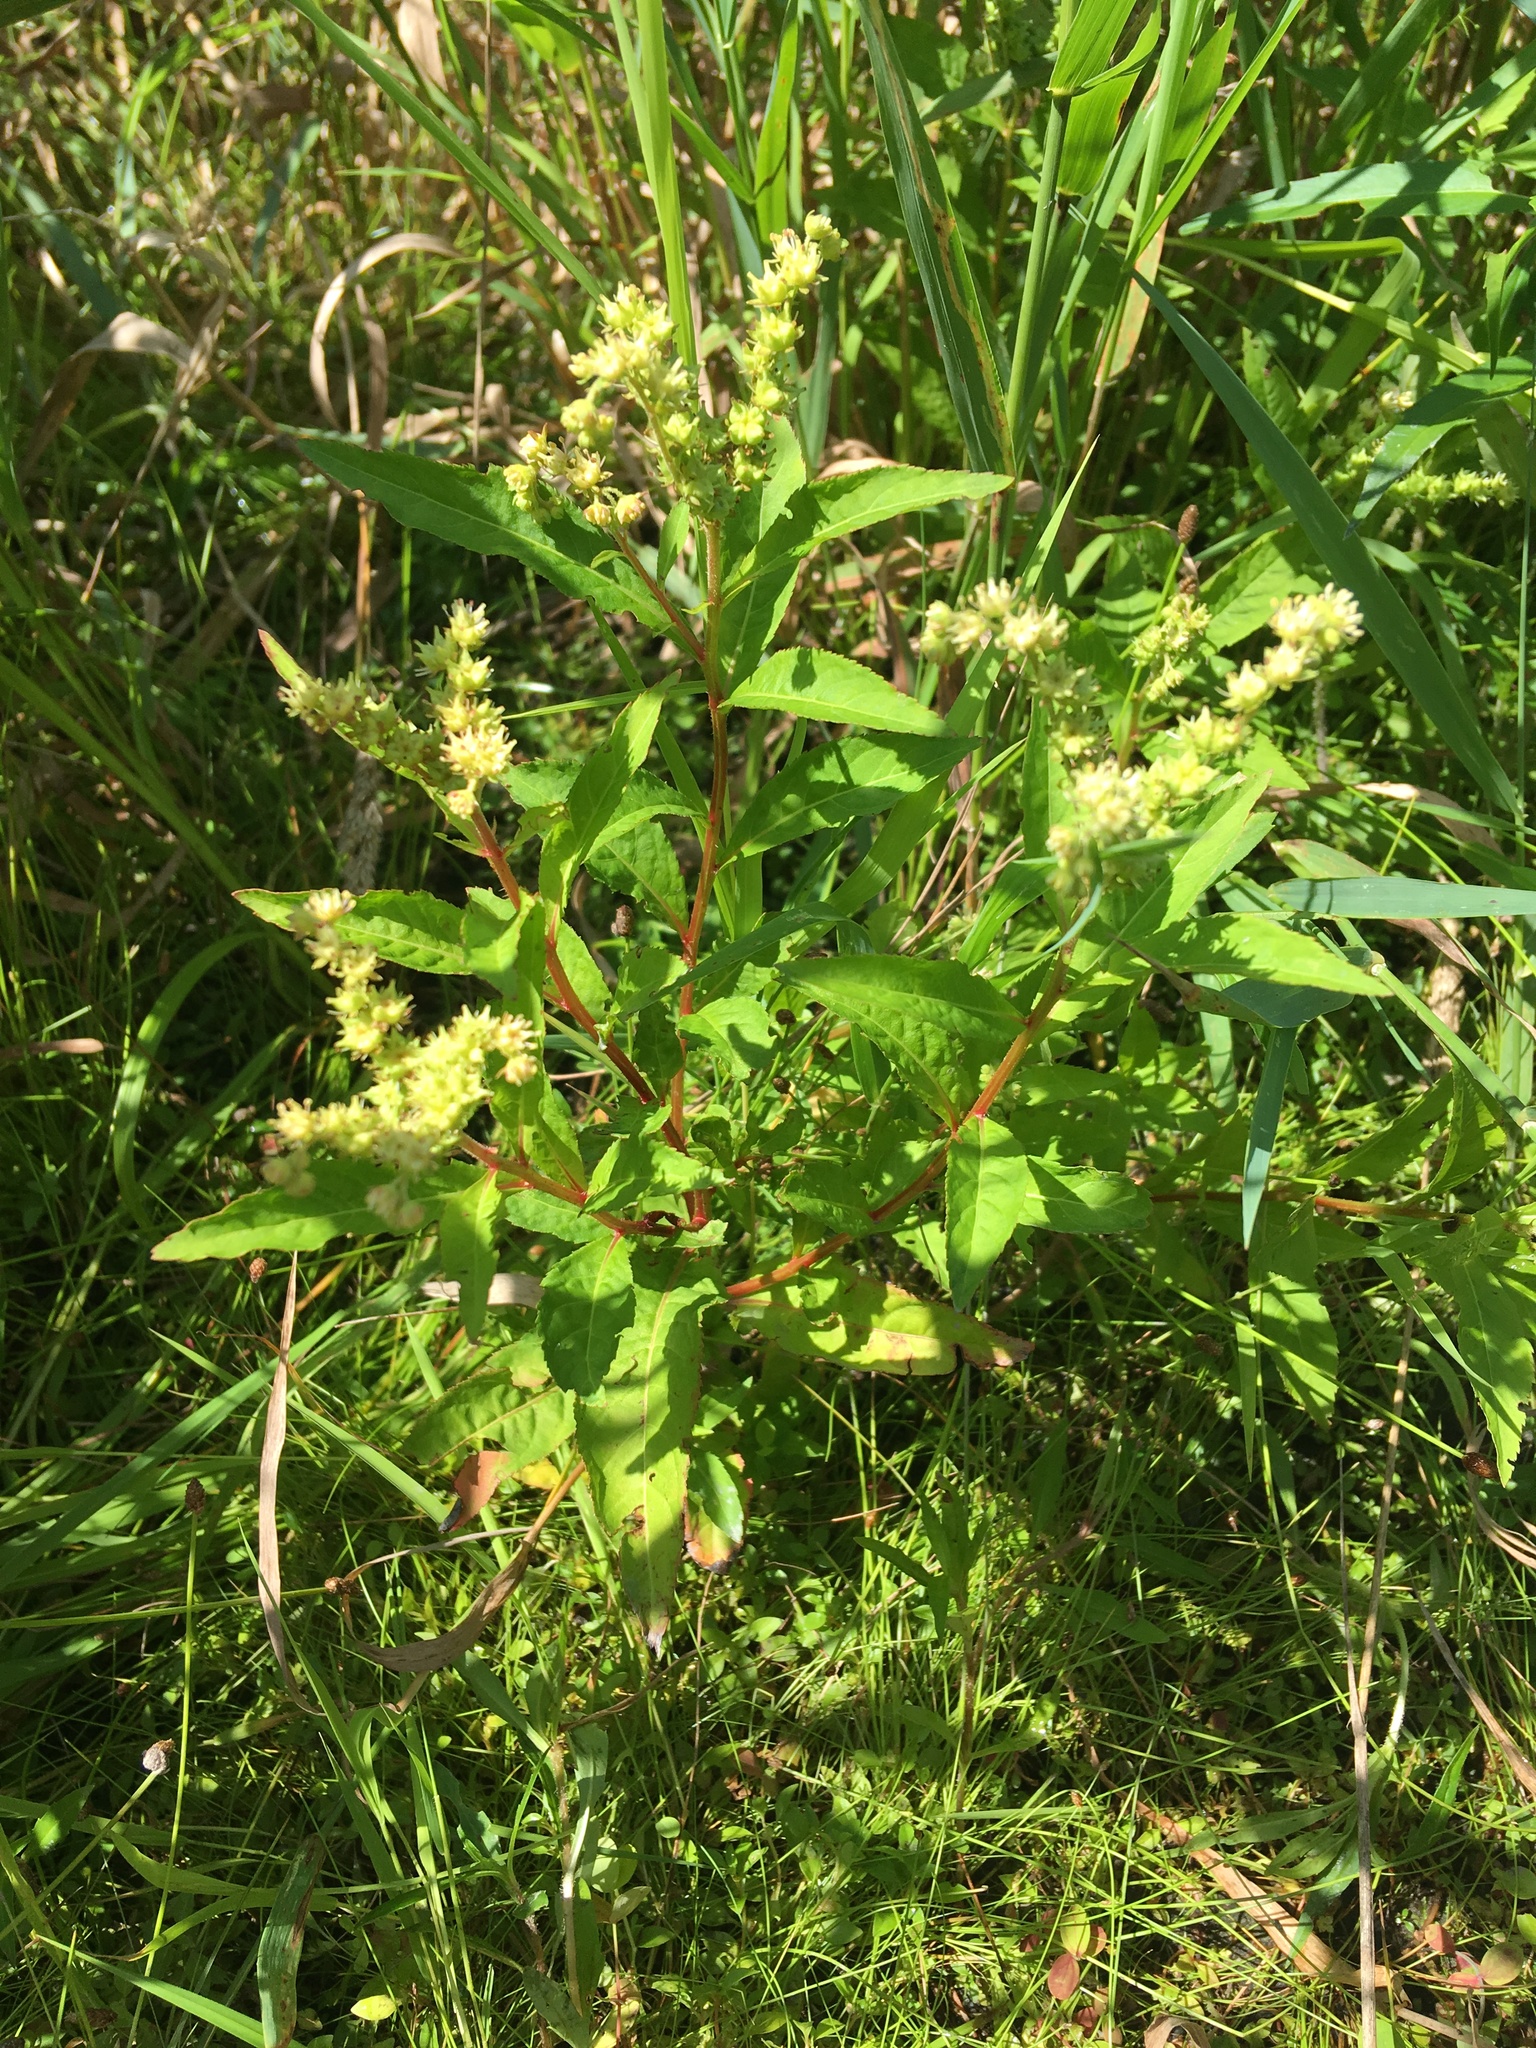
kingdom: Plantae
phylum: Tracheophyta
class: Magnoliopsida
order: Saxifragales
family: Penthoraceae
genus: Penthorum
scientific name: Penthorum sedoides
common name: Ditch stonecrop
